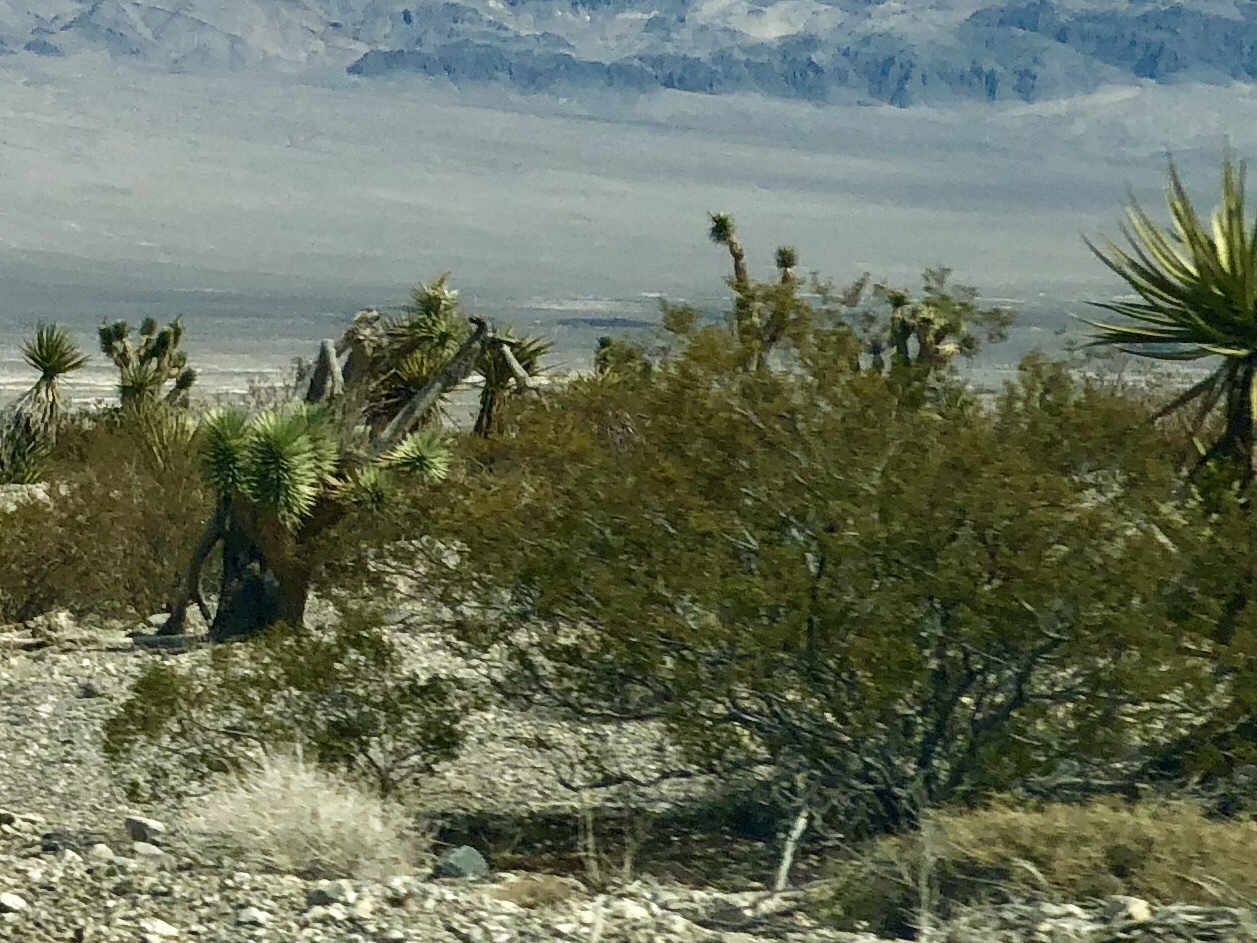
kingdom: Plantae
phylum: Tracheophyta
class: Magnoliopsida
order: Zygophyllales
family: Zygophyllaceae
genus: Larrea
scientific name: Larrea tridentata
